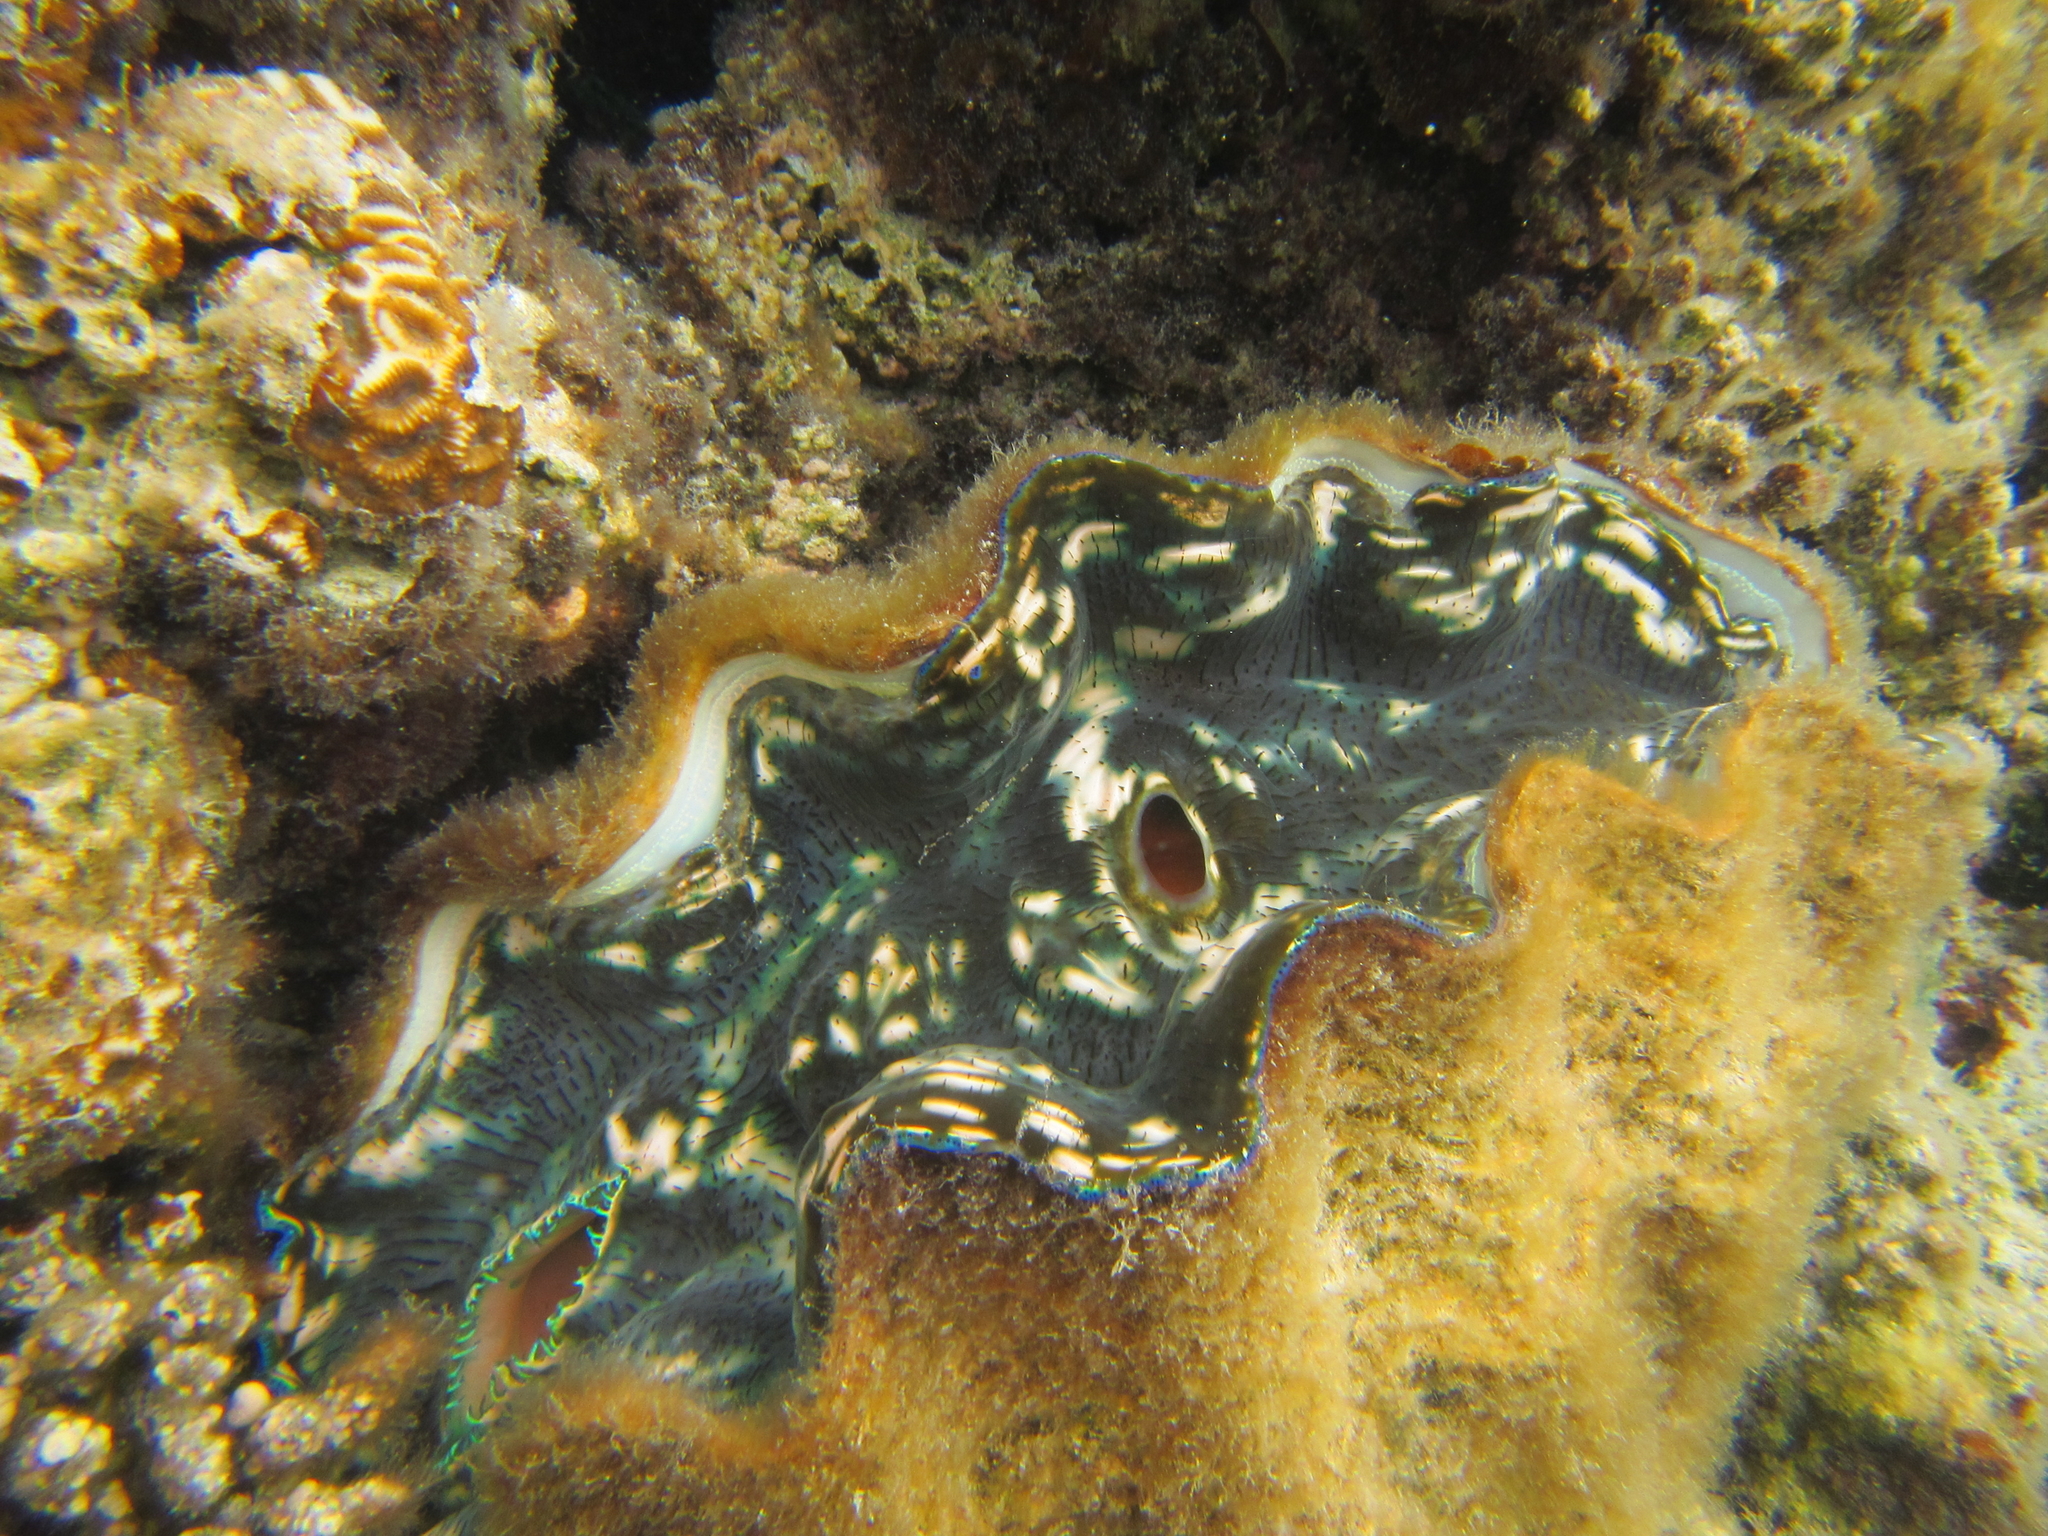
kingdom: Animalia
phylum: Mollusca
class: Bivalvia
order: Cardiida
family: Cardiidae
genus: Tridacna
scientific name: Tridacna derasa
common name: Southern giant clam
